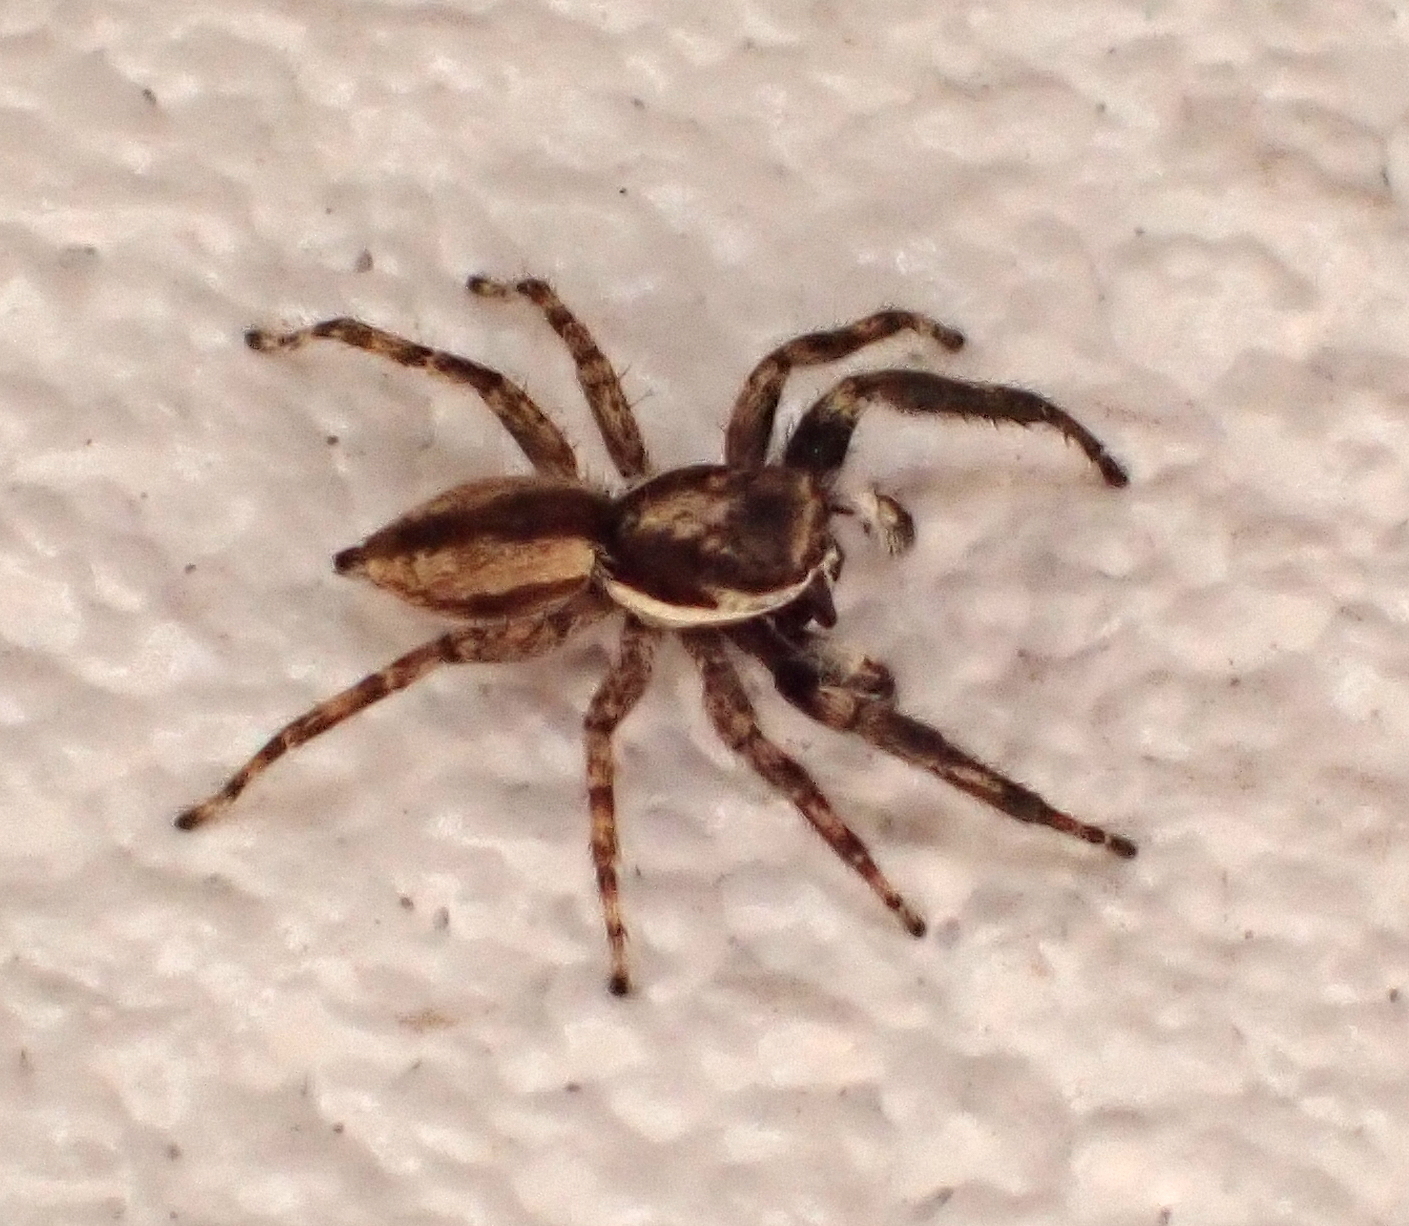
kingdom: Animalia
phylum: Arthropoda
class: Arachnida
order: Araneae
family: Salticidae
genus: Menemerus
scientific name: Menemerus bivittatus
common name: Gray wall jumper
